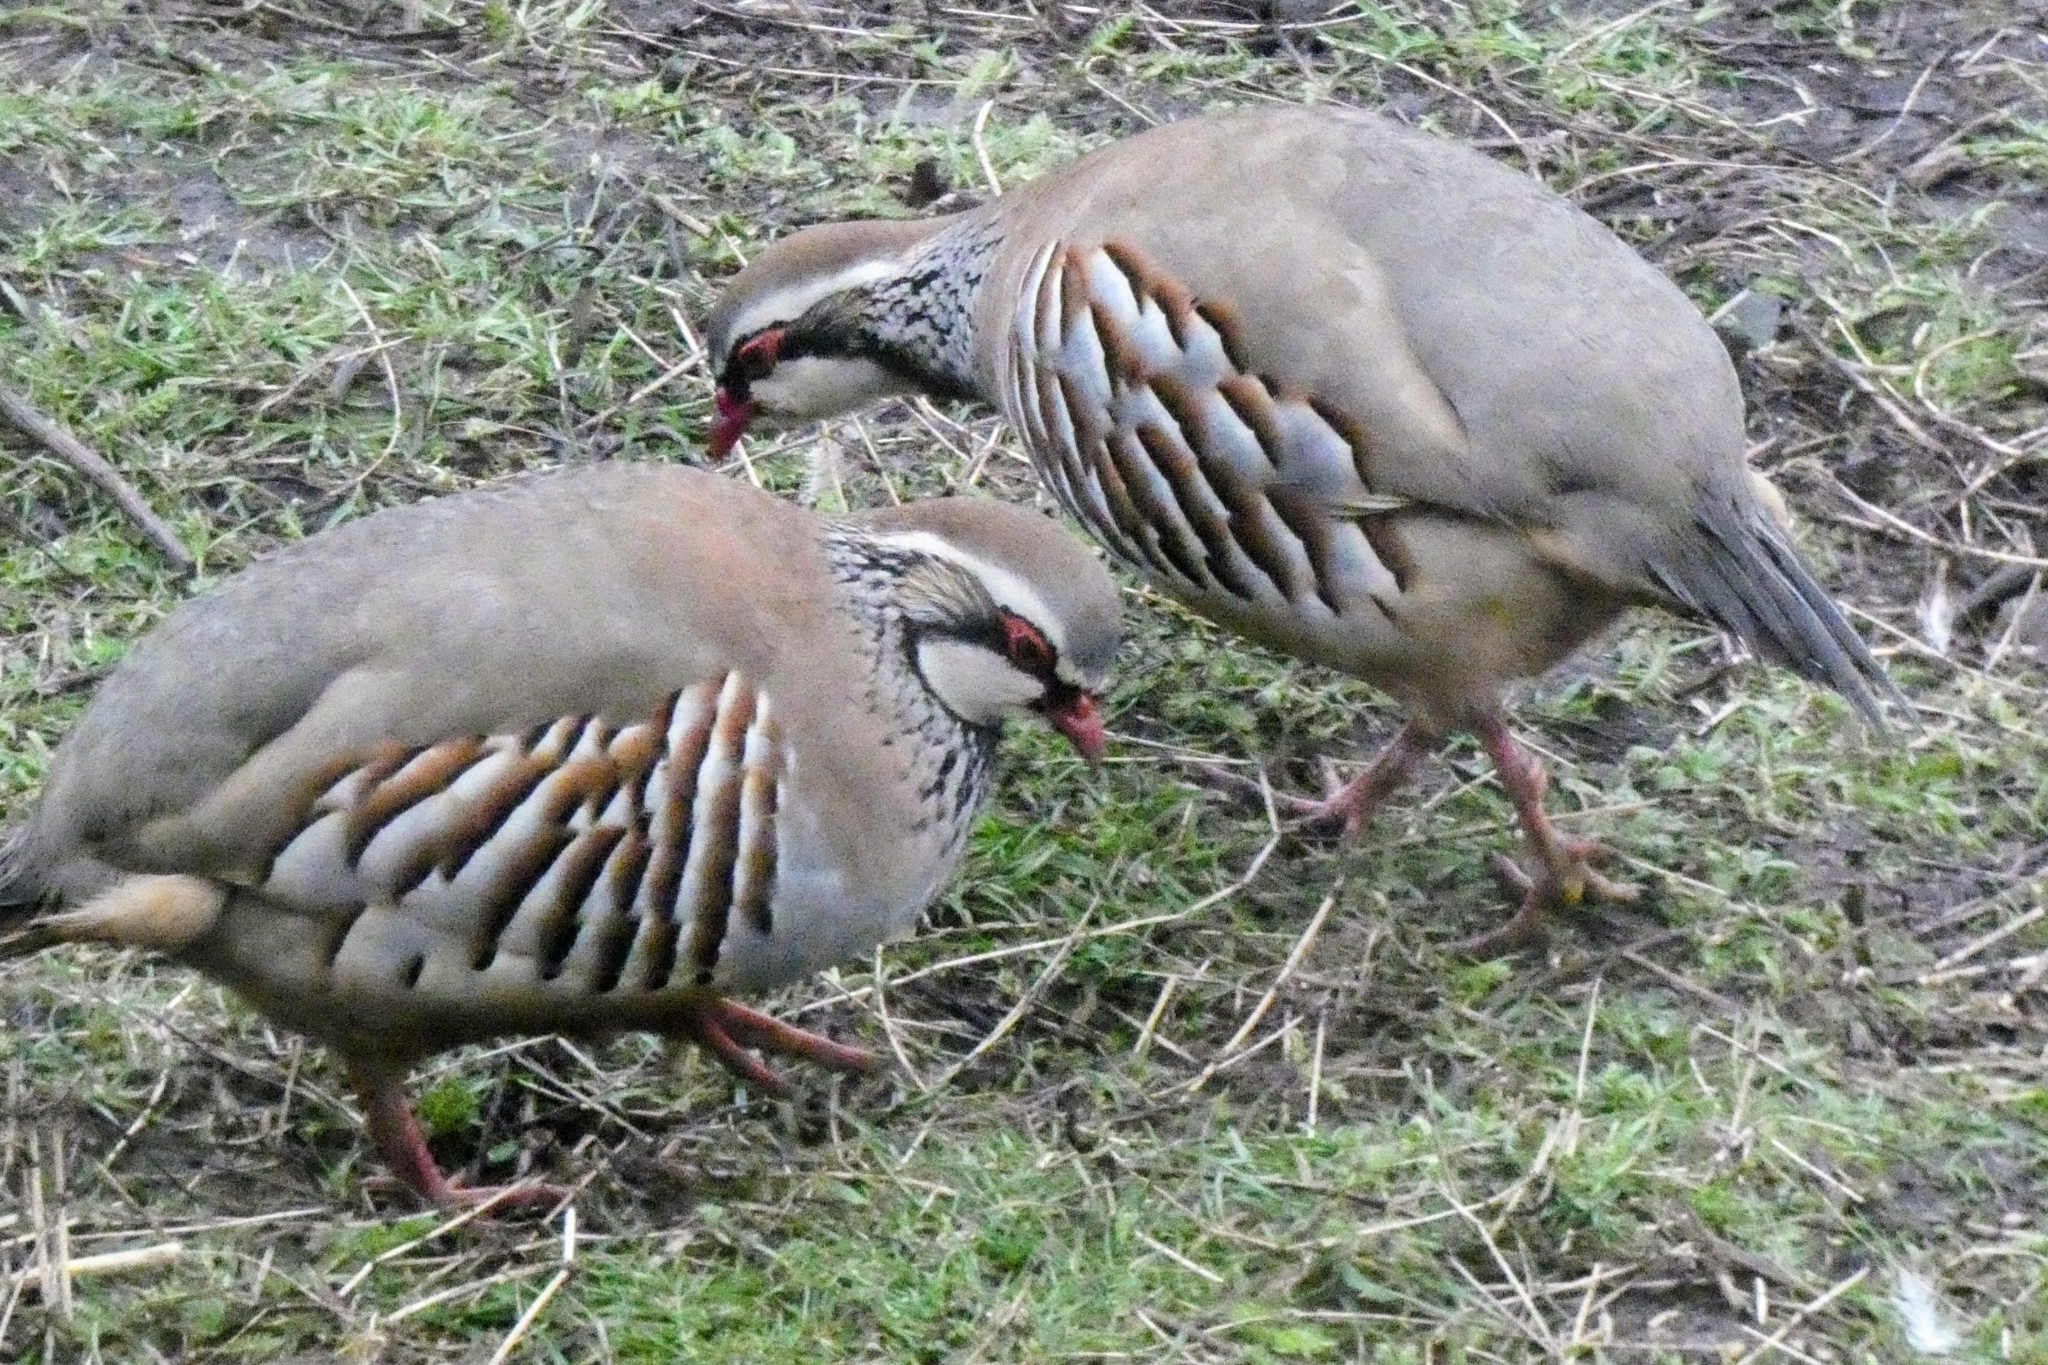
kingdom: Animalia
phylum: Chordata
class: Aves
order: Galliformes
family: Phasianidae
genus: Alectoris
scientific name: Alectoris rufa
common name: Red-legged partridge
